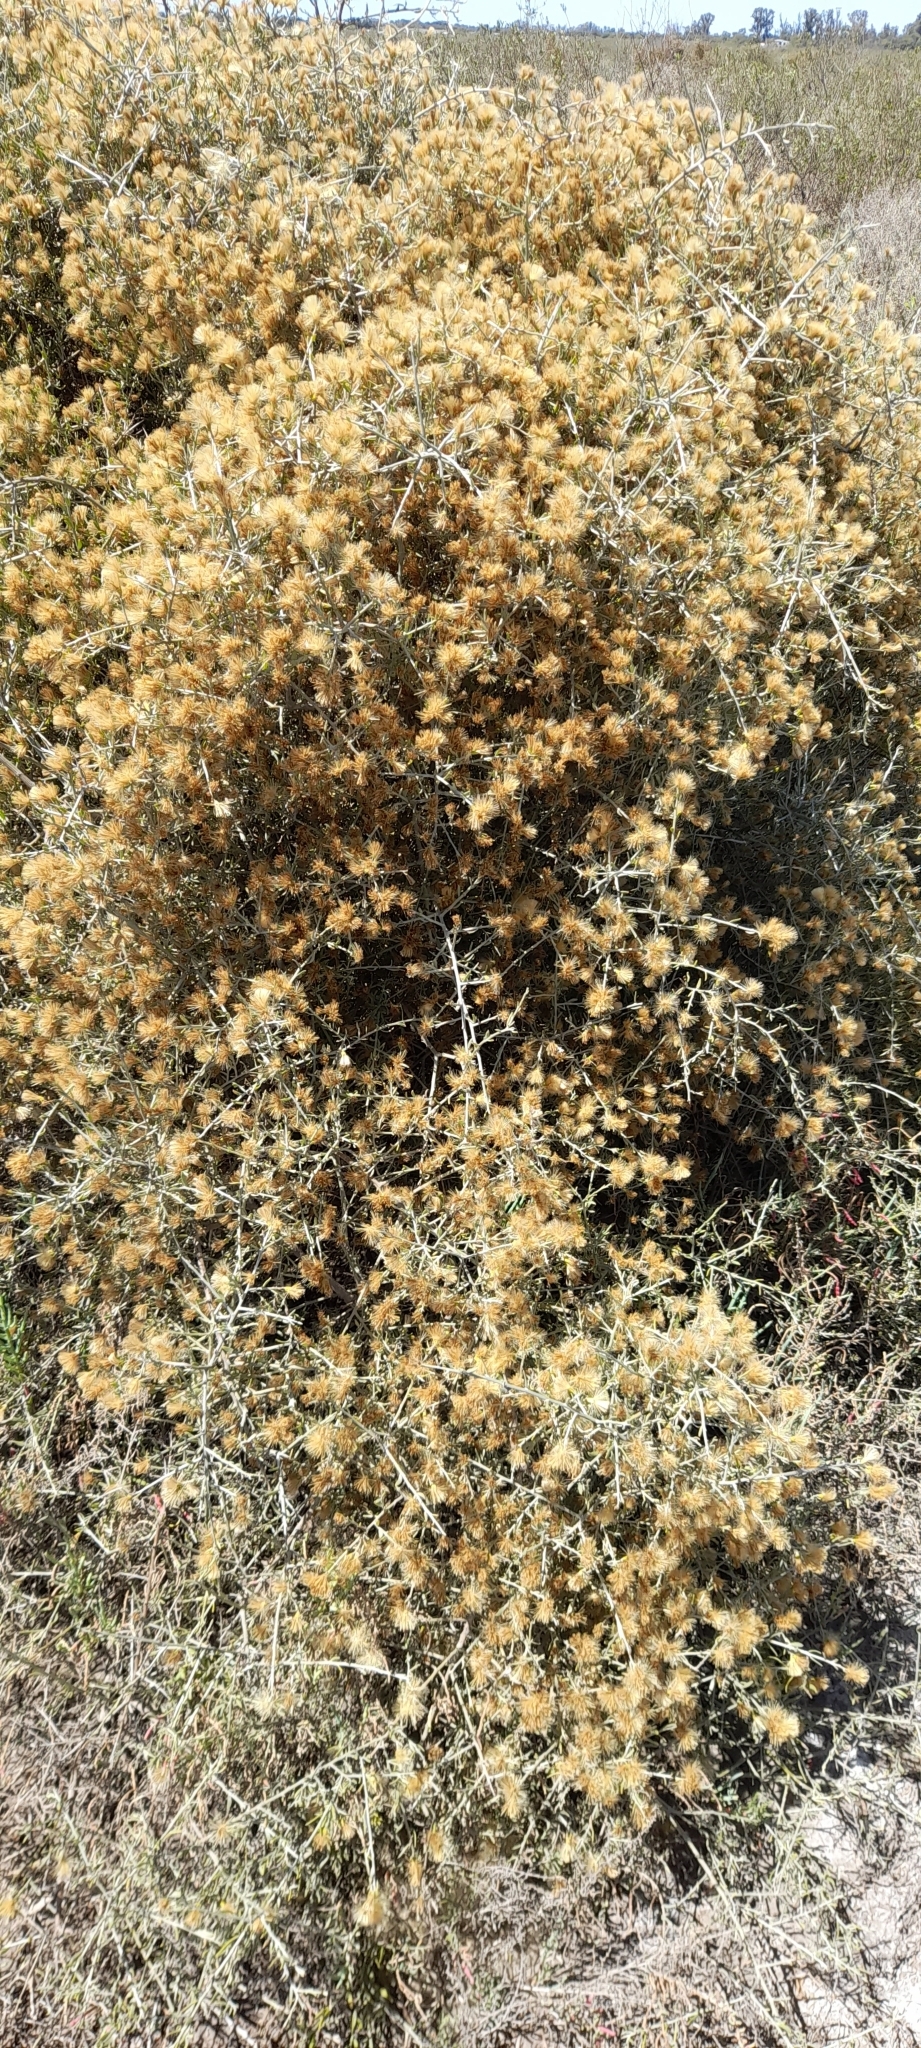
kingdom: Plantae
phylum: Tracheophyta
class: Magnoliopsida
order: Asterales
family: Asteraceae
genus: Cyclolepis
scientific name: Cyclolepis genistoides
